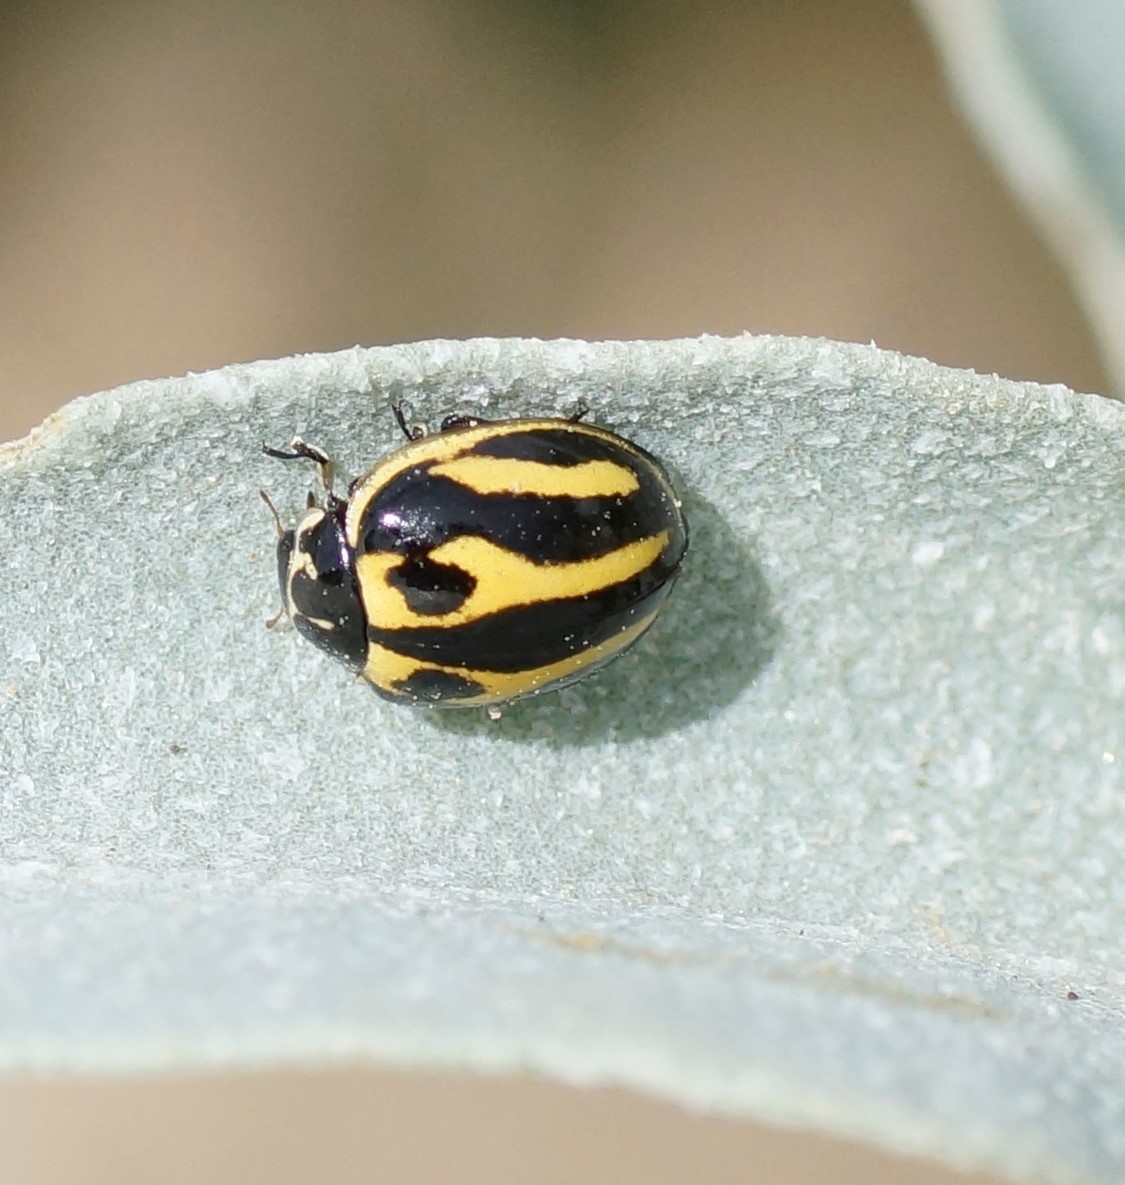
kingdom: Animalia
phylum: Arthropoda
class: Insecta
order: Coleoptera
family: Coccinellidae
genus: Micraspis
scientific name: Micraspis
